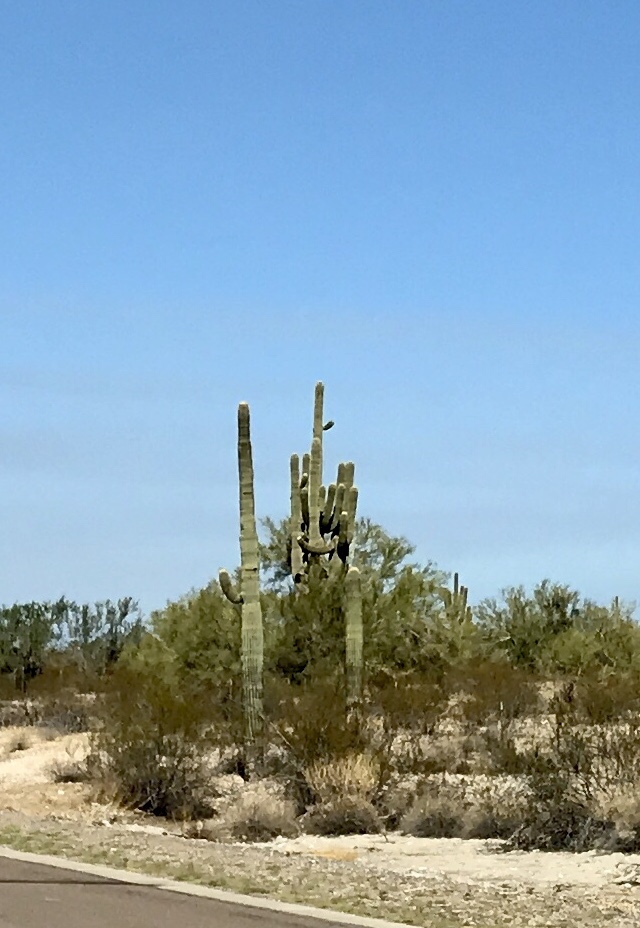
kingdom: Plantae
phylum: Tracheophyta
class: Magnoliopsida
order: Caryophyllales
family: Cactaceae
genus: Carnegiea
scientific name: Carnegiea gigantea
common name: Saguaro
